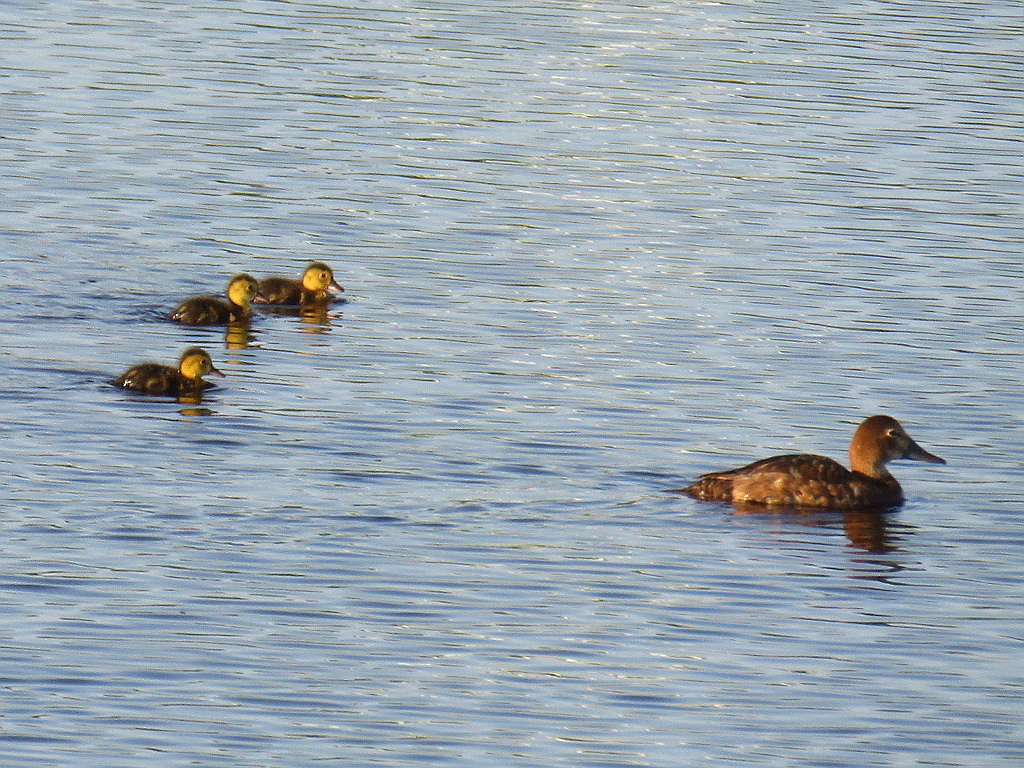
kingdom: Animalia
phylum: Chordata
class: Aves
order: Anseriformes
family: Anatidae
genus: Aythya
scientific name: Aythya ferina
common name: Common pochard
